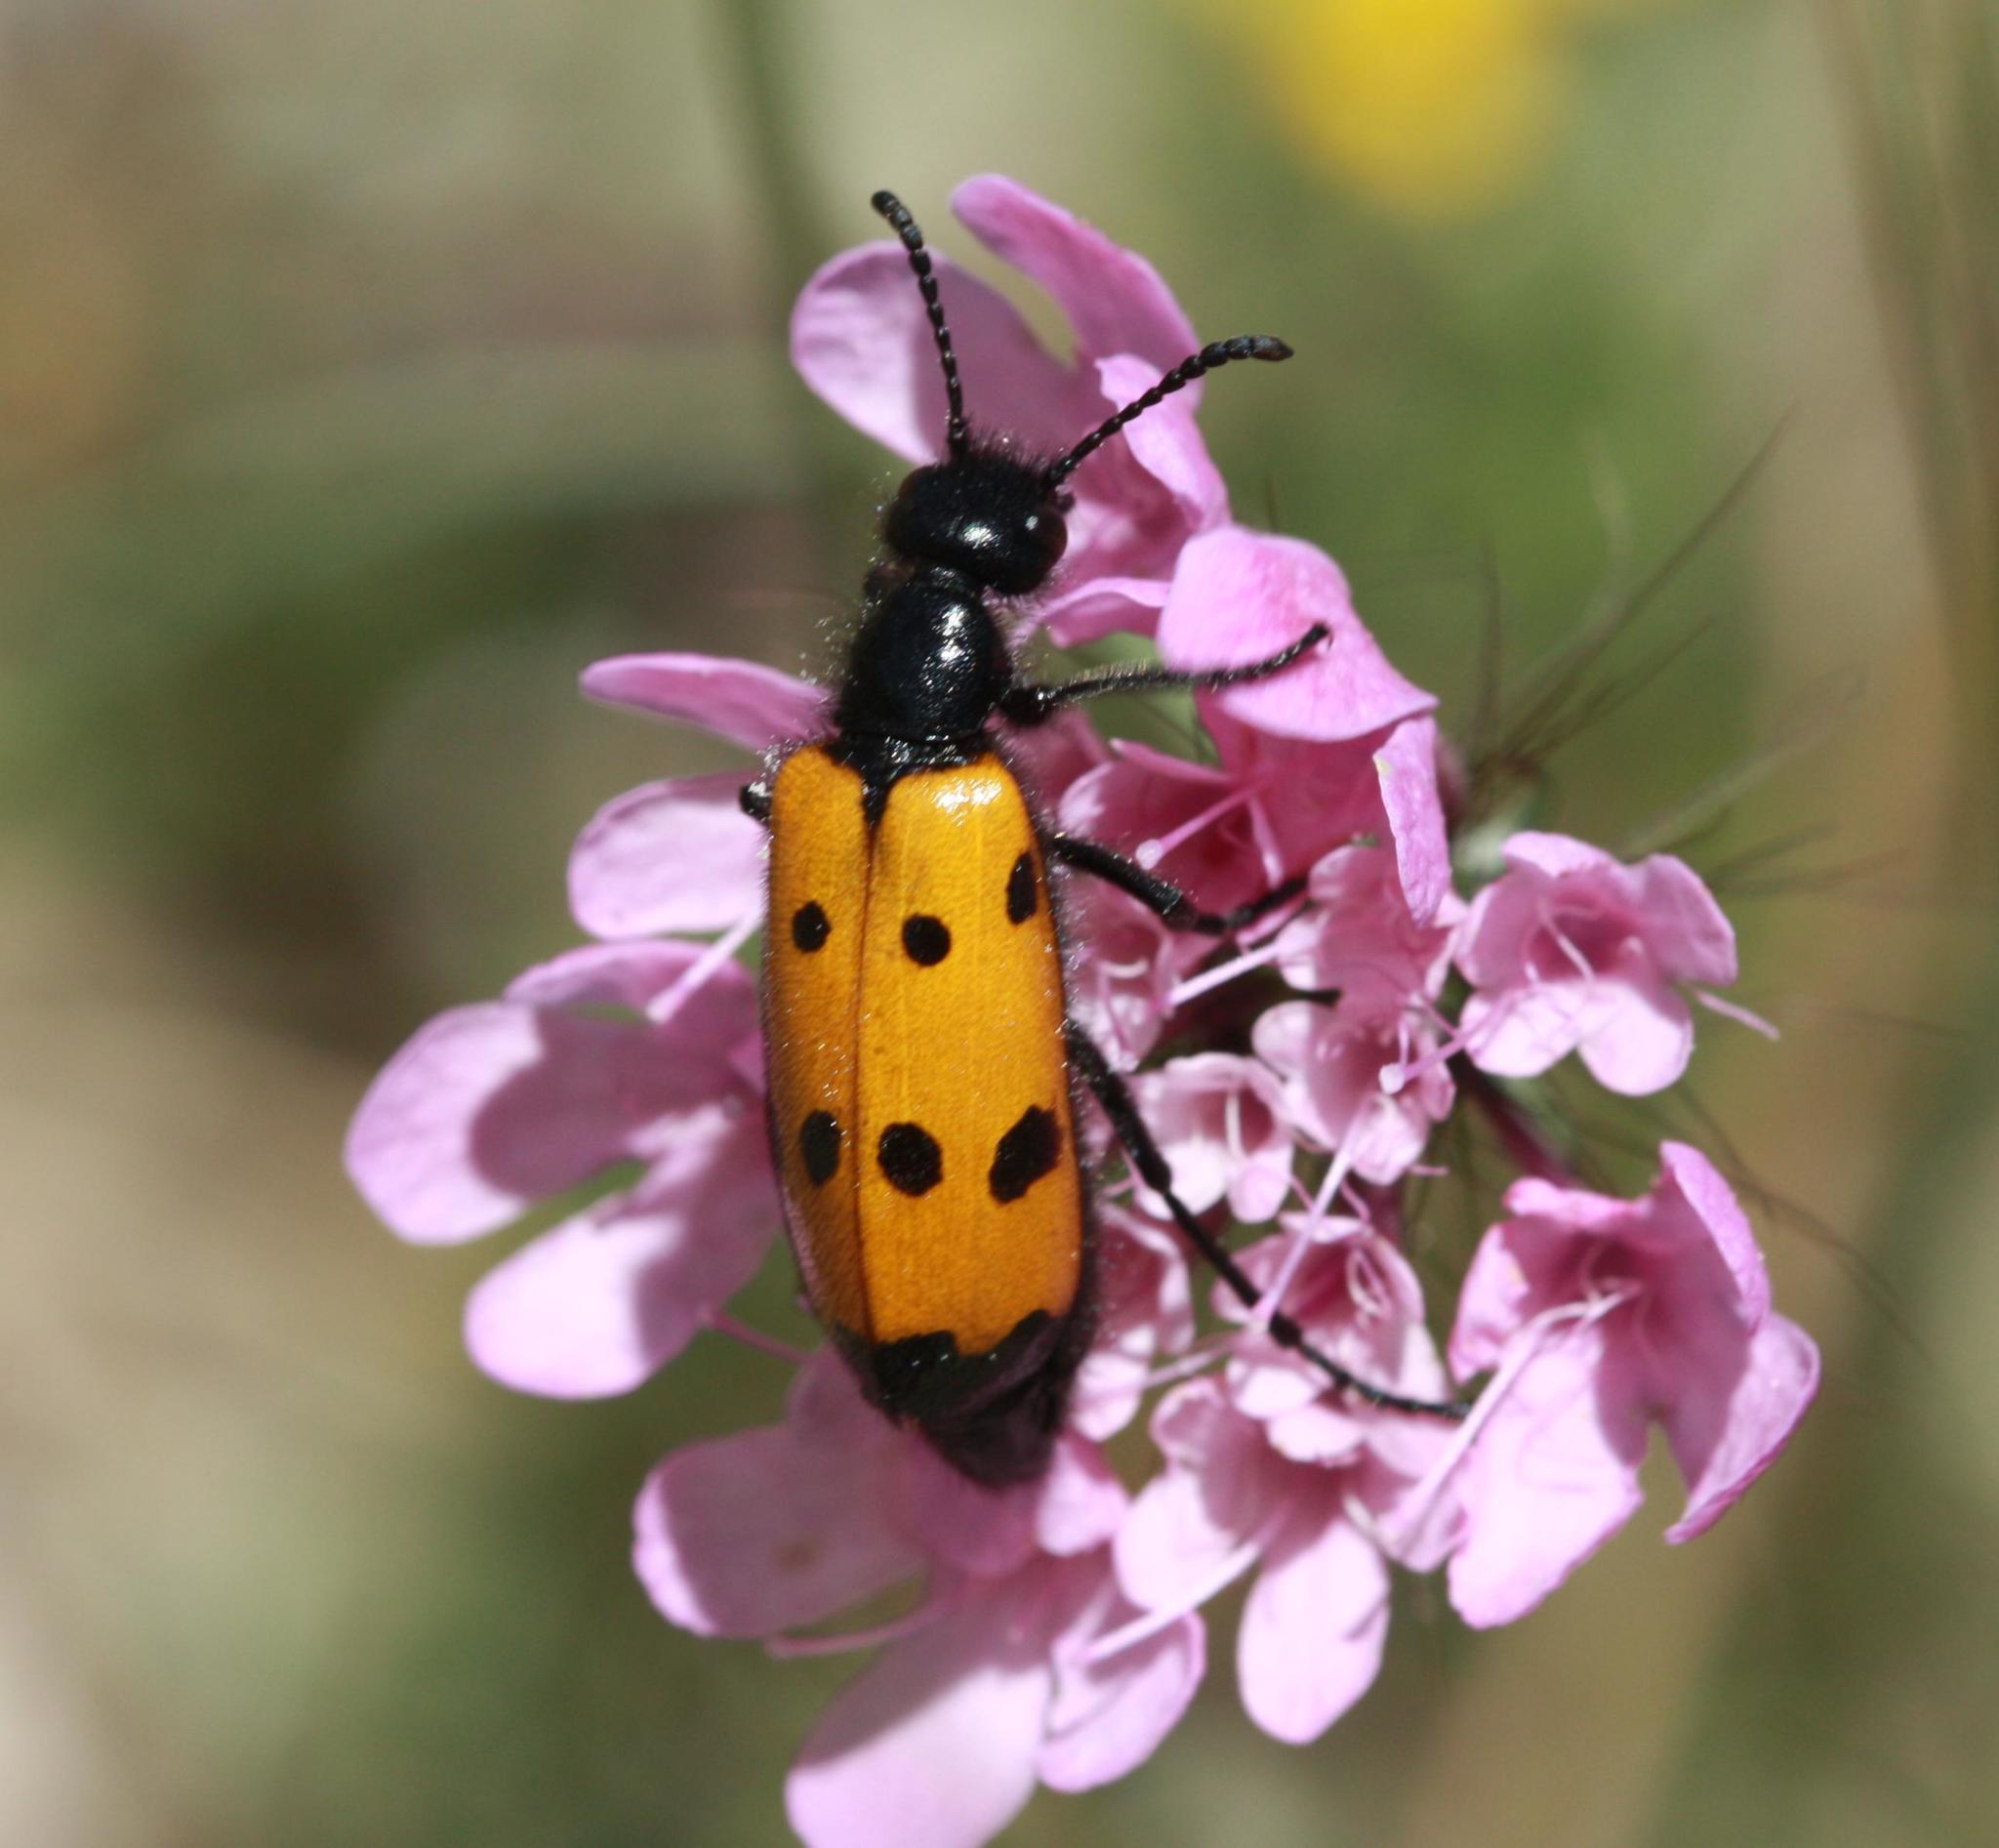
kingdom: Animalia
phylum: Arthropoda
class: Insecta
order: Coleoptera
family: Meloidae
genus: Mylabris
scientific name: Mylabris quadripunctata
